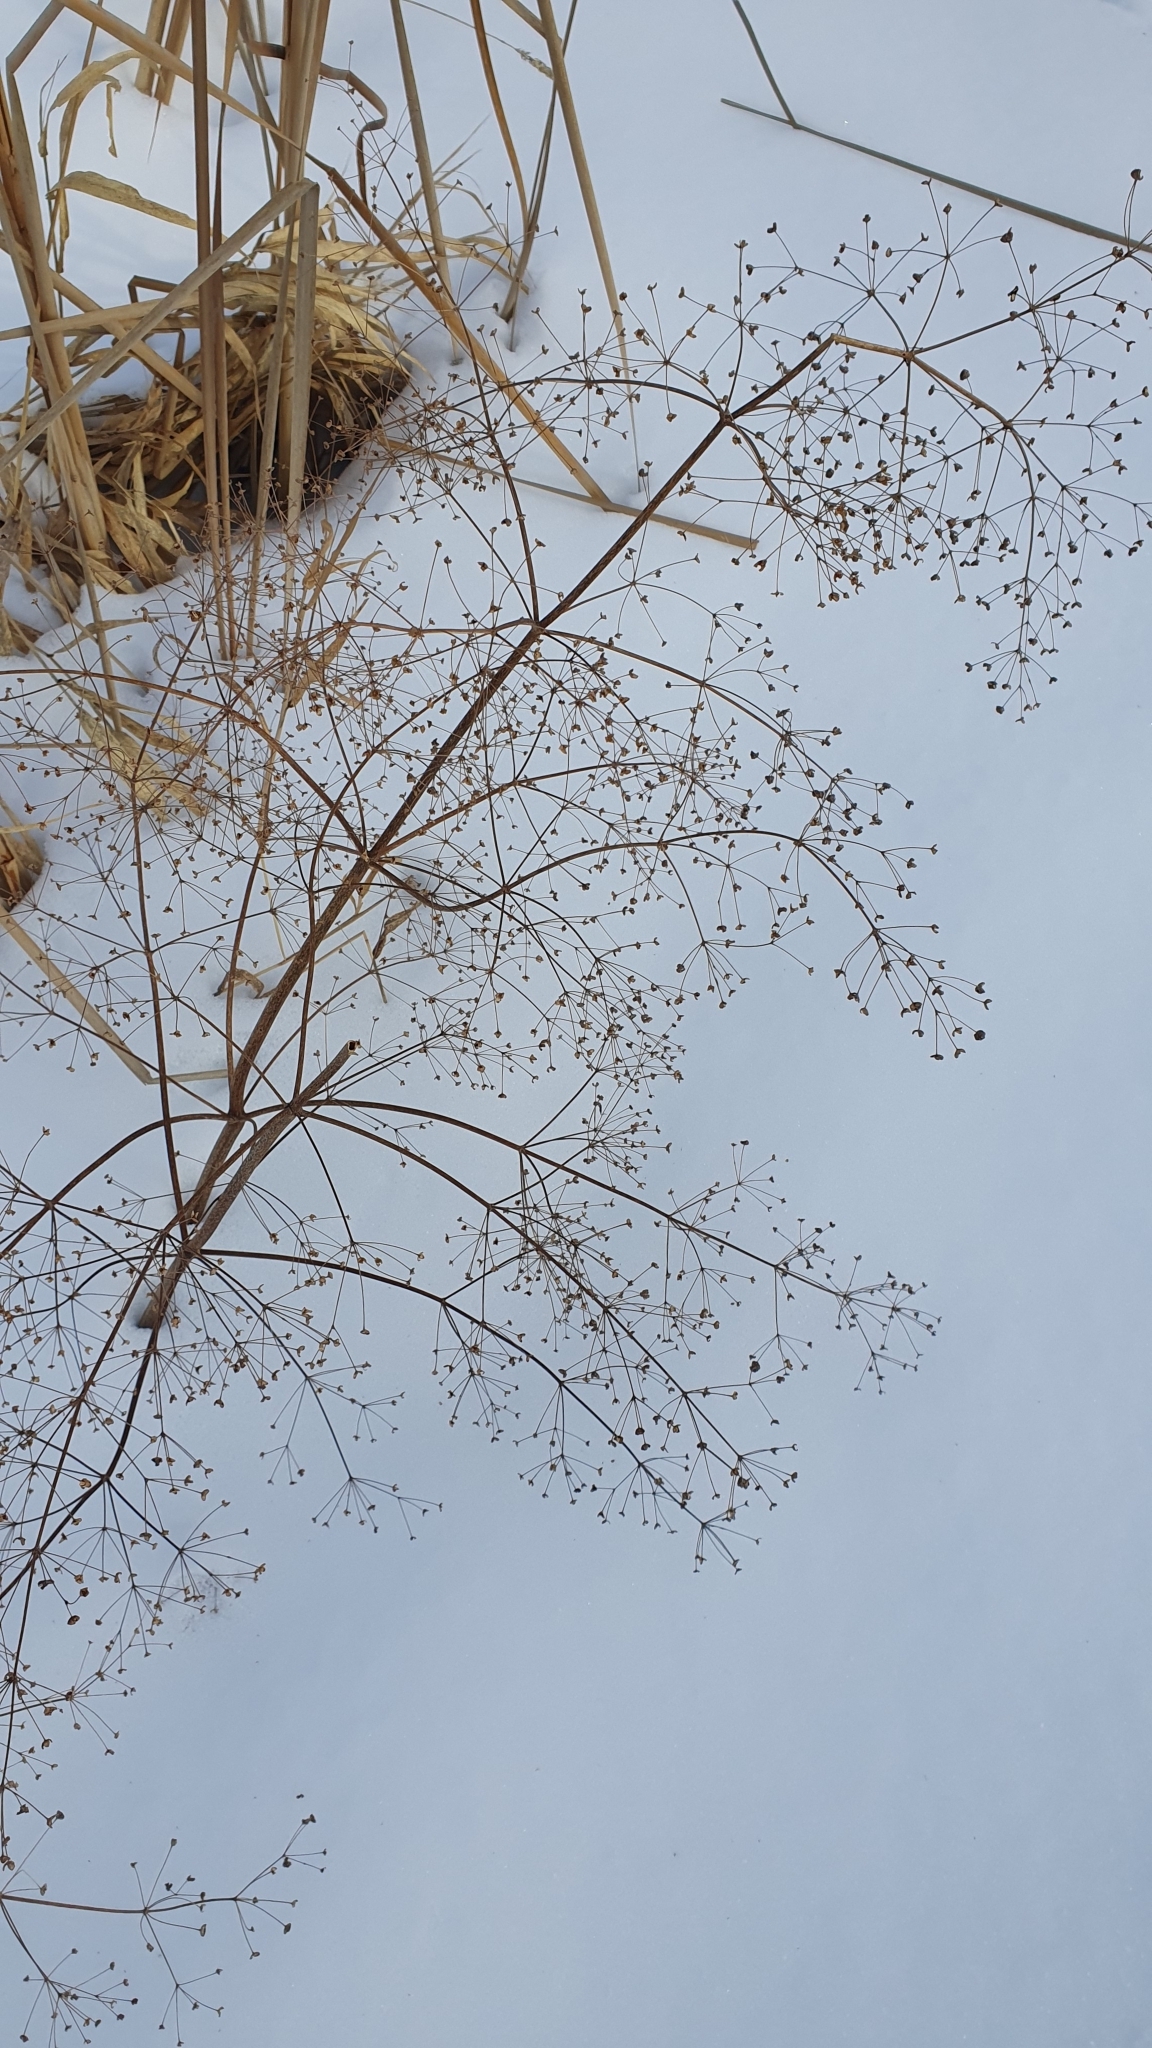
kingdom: Plantae
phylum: Tracheophyta
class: Liliopsida
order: Alismatales
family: Alismataceae
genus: Alisma
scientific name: Alisma plantago-aquatica
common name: Water-plantain
